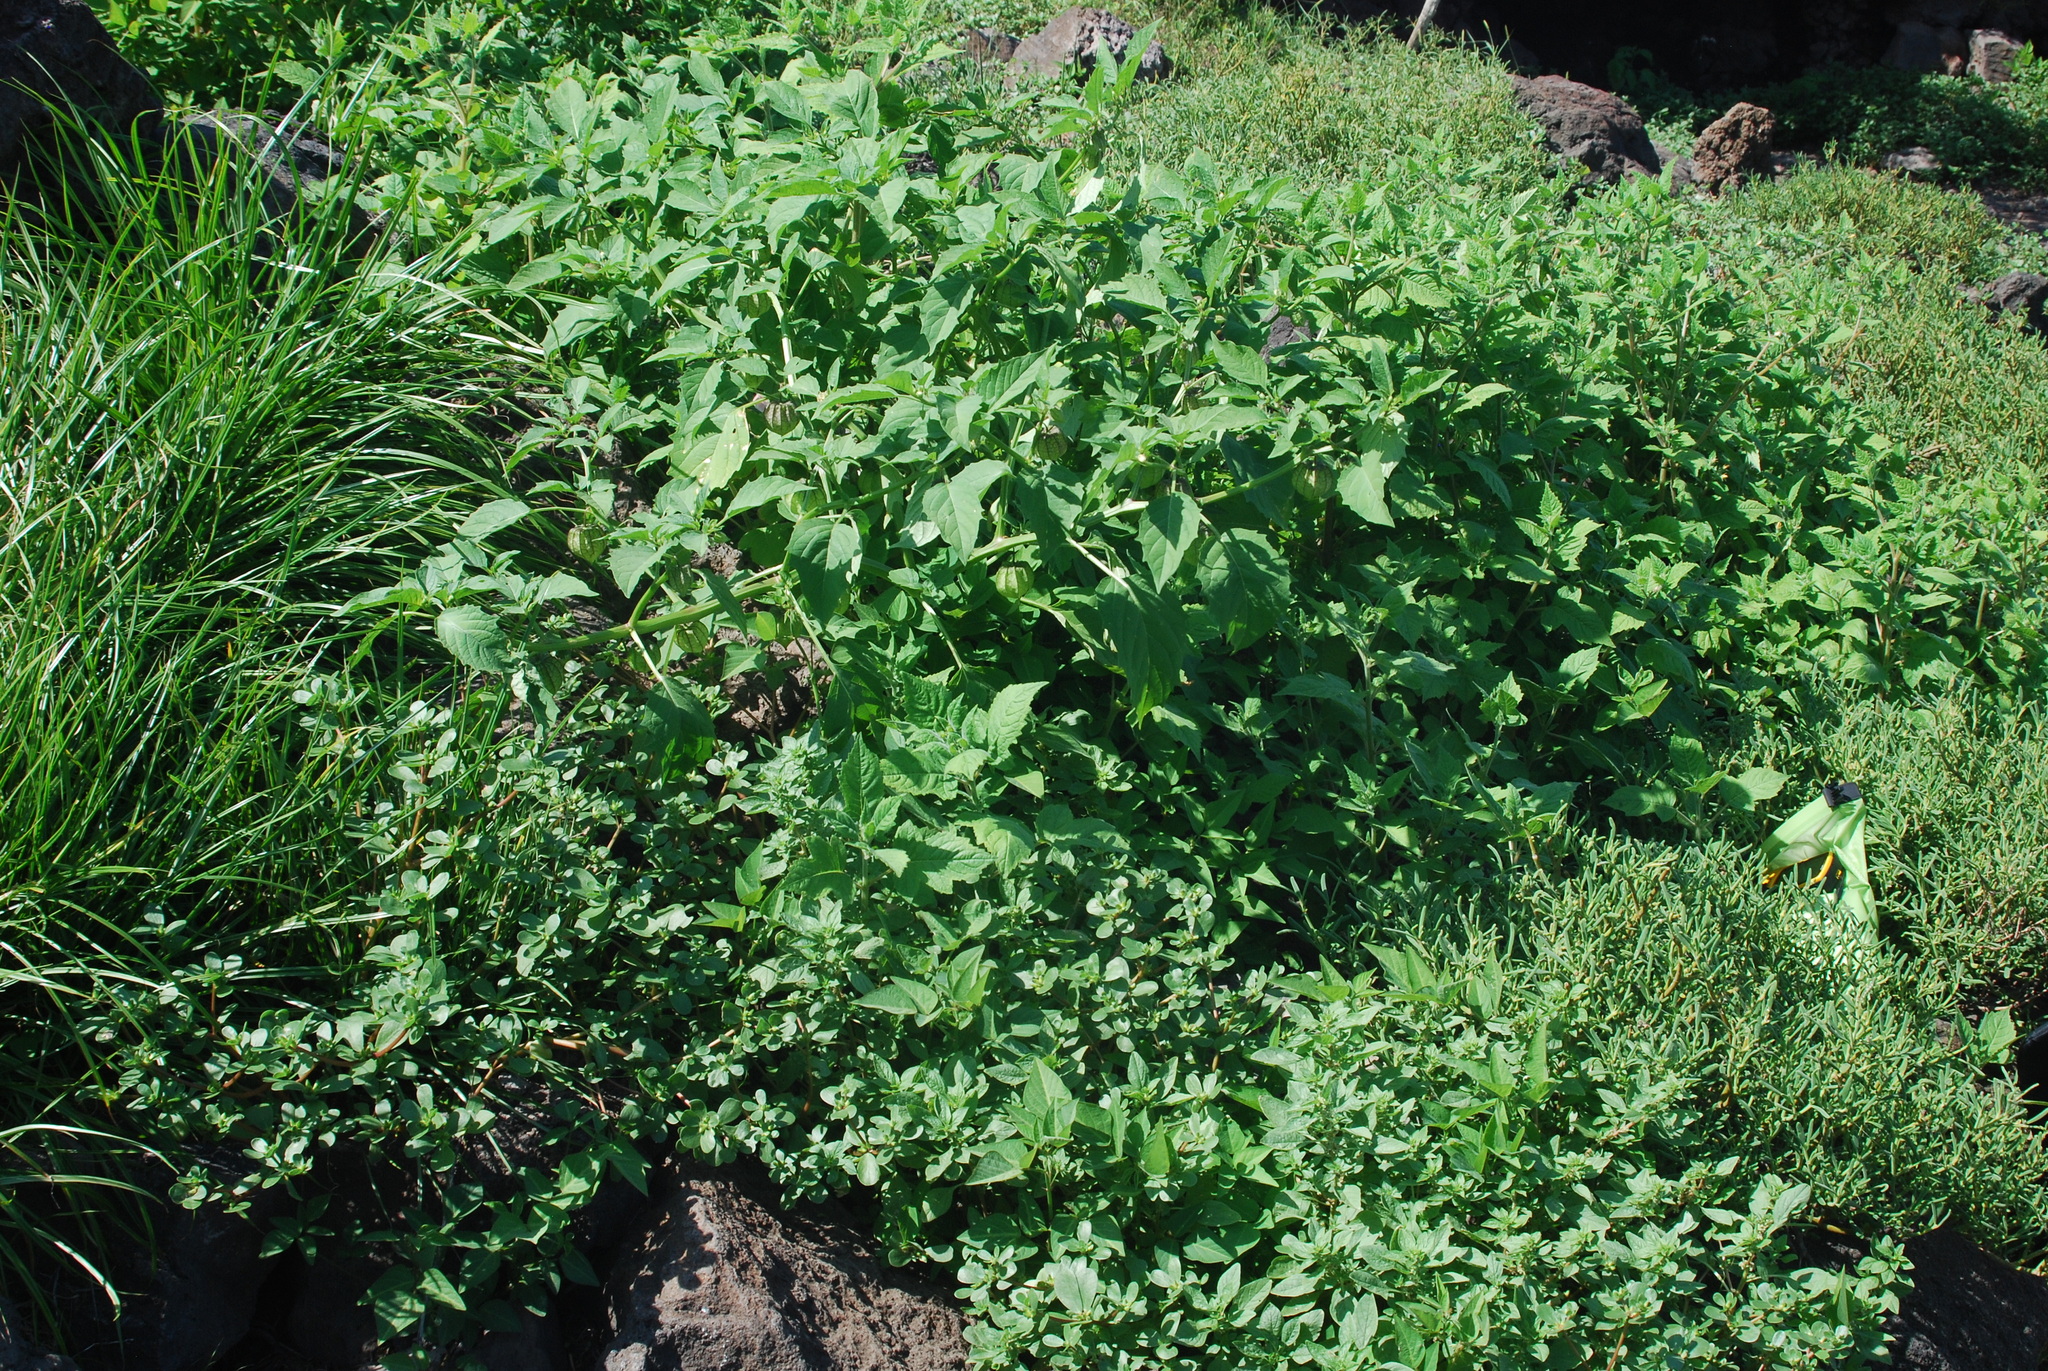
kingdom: Plantae
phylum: Tracheophyta
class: Magnoliopsida
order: Solanales
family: Solanaceae
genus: Physalis
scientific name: Physalis angulata
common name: Angular winter-cherry
